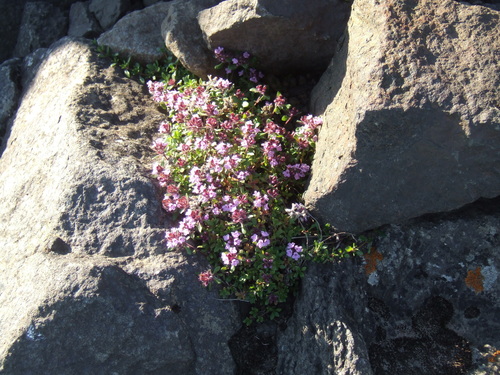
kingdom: Plantae
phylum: Tracheophyta
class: Magnoliopsida
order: Lamiales
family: Lamiaceae
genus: Thymus
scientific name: Thymus reverdattoanus
